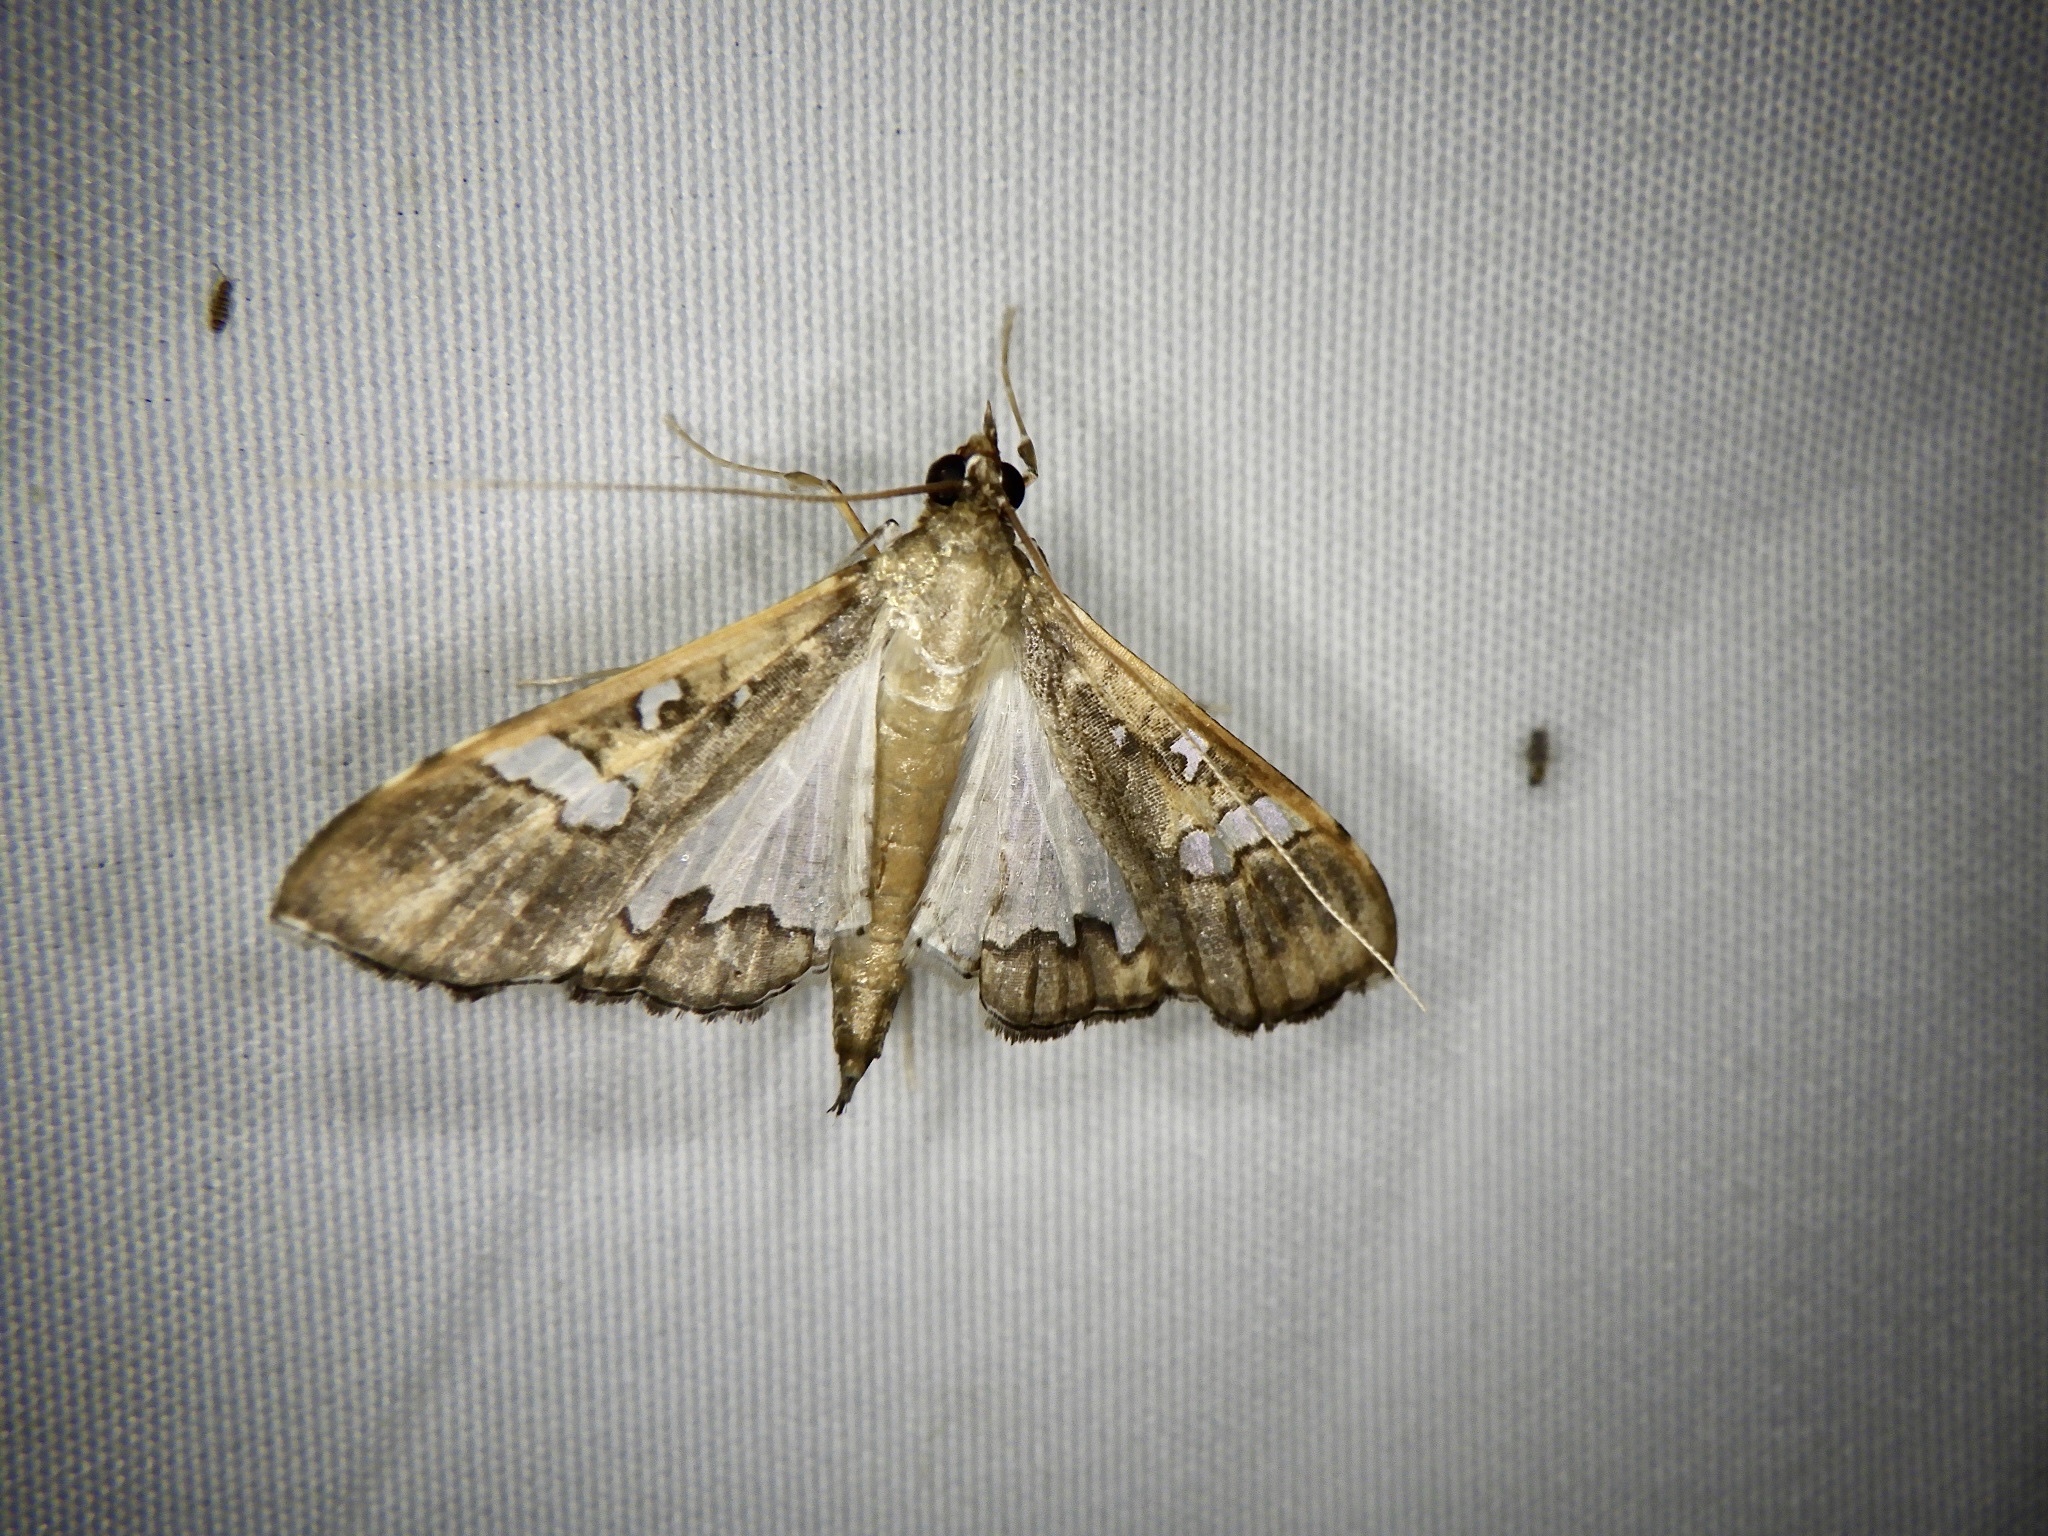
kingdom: Animalia
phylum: Arthropoda
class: Insecta
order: Lepidoptera
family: Crambidae
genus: Maruca
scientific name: Maruca vitrata
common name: Maruca pod borer
